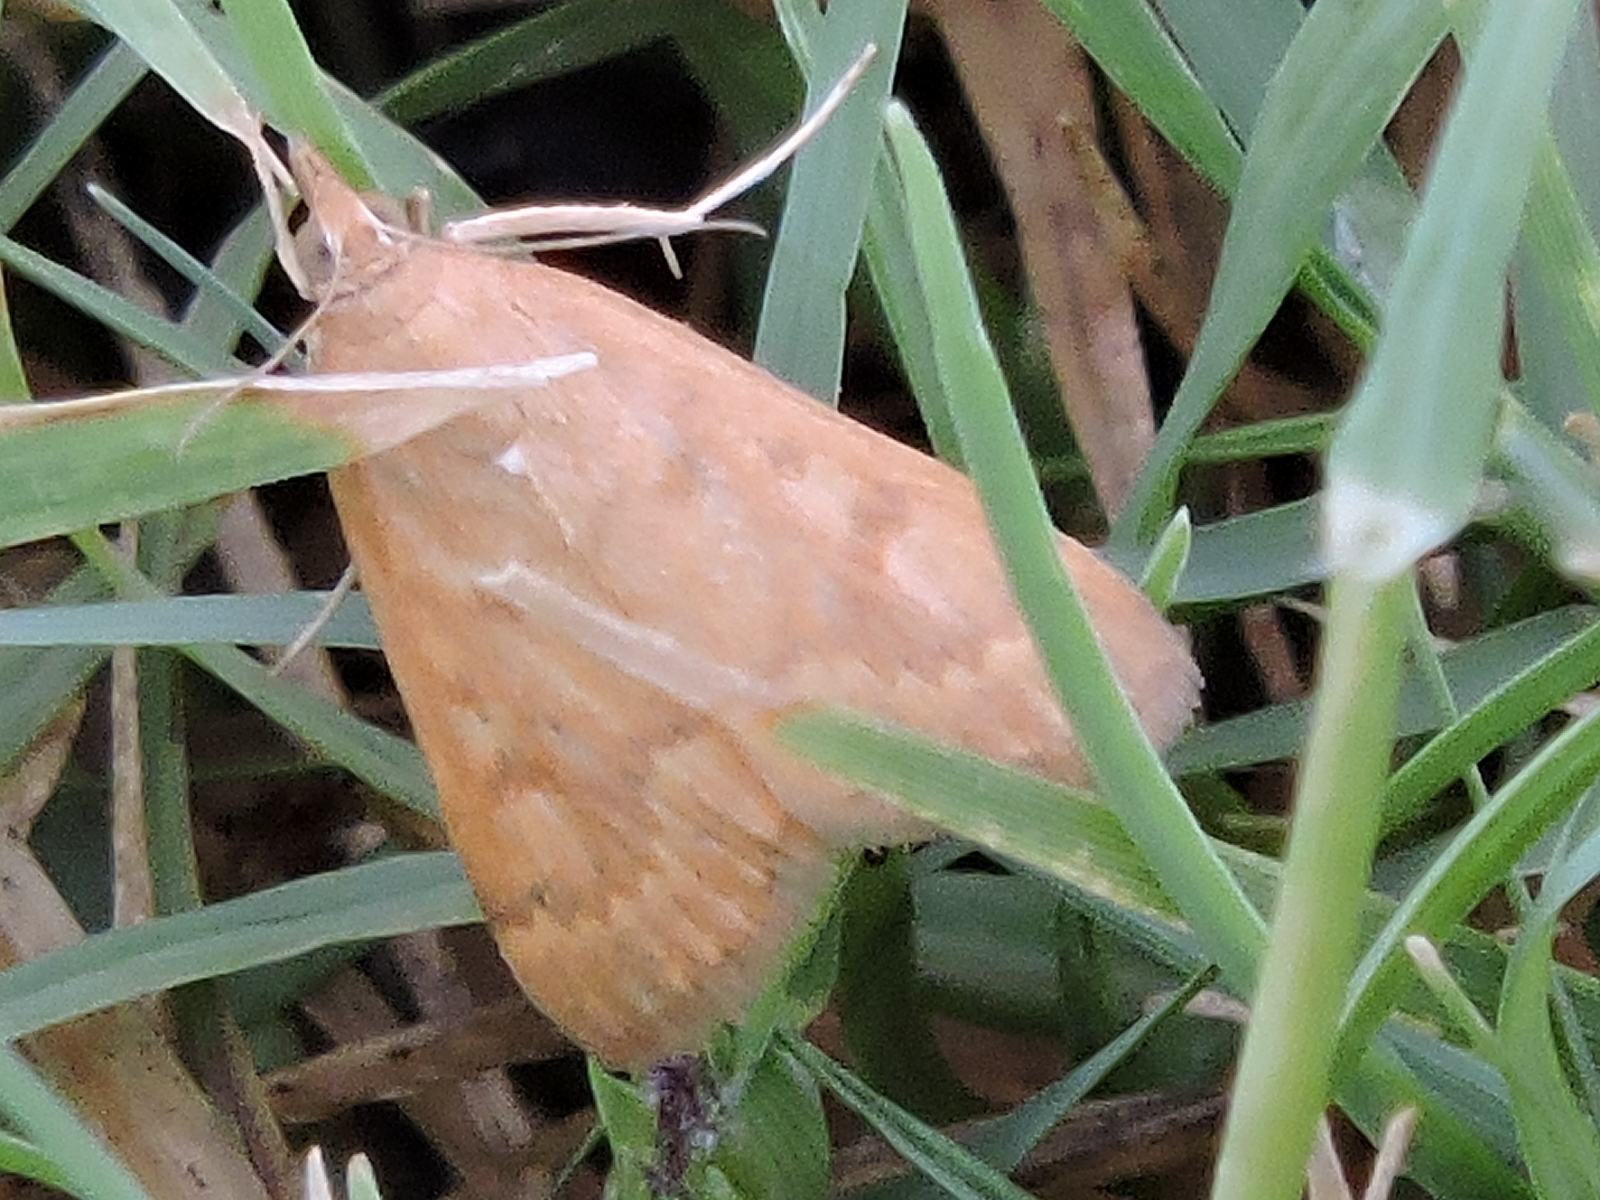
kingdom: Animalia
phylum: Arthropoda
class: Insecta
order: Lepidoptera
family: Crambidae
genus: Achyra
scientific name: Achyra rantalis
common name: Garden webworm
